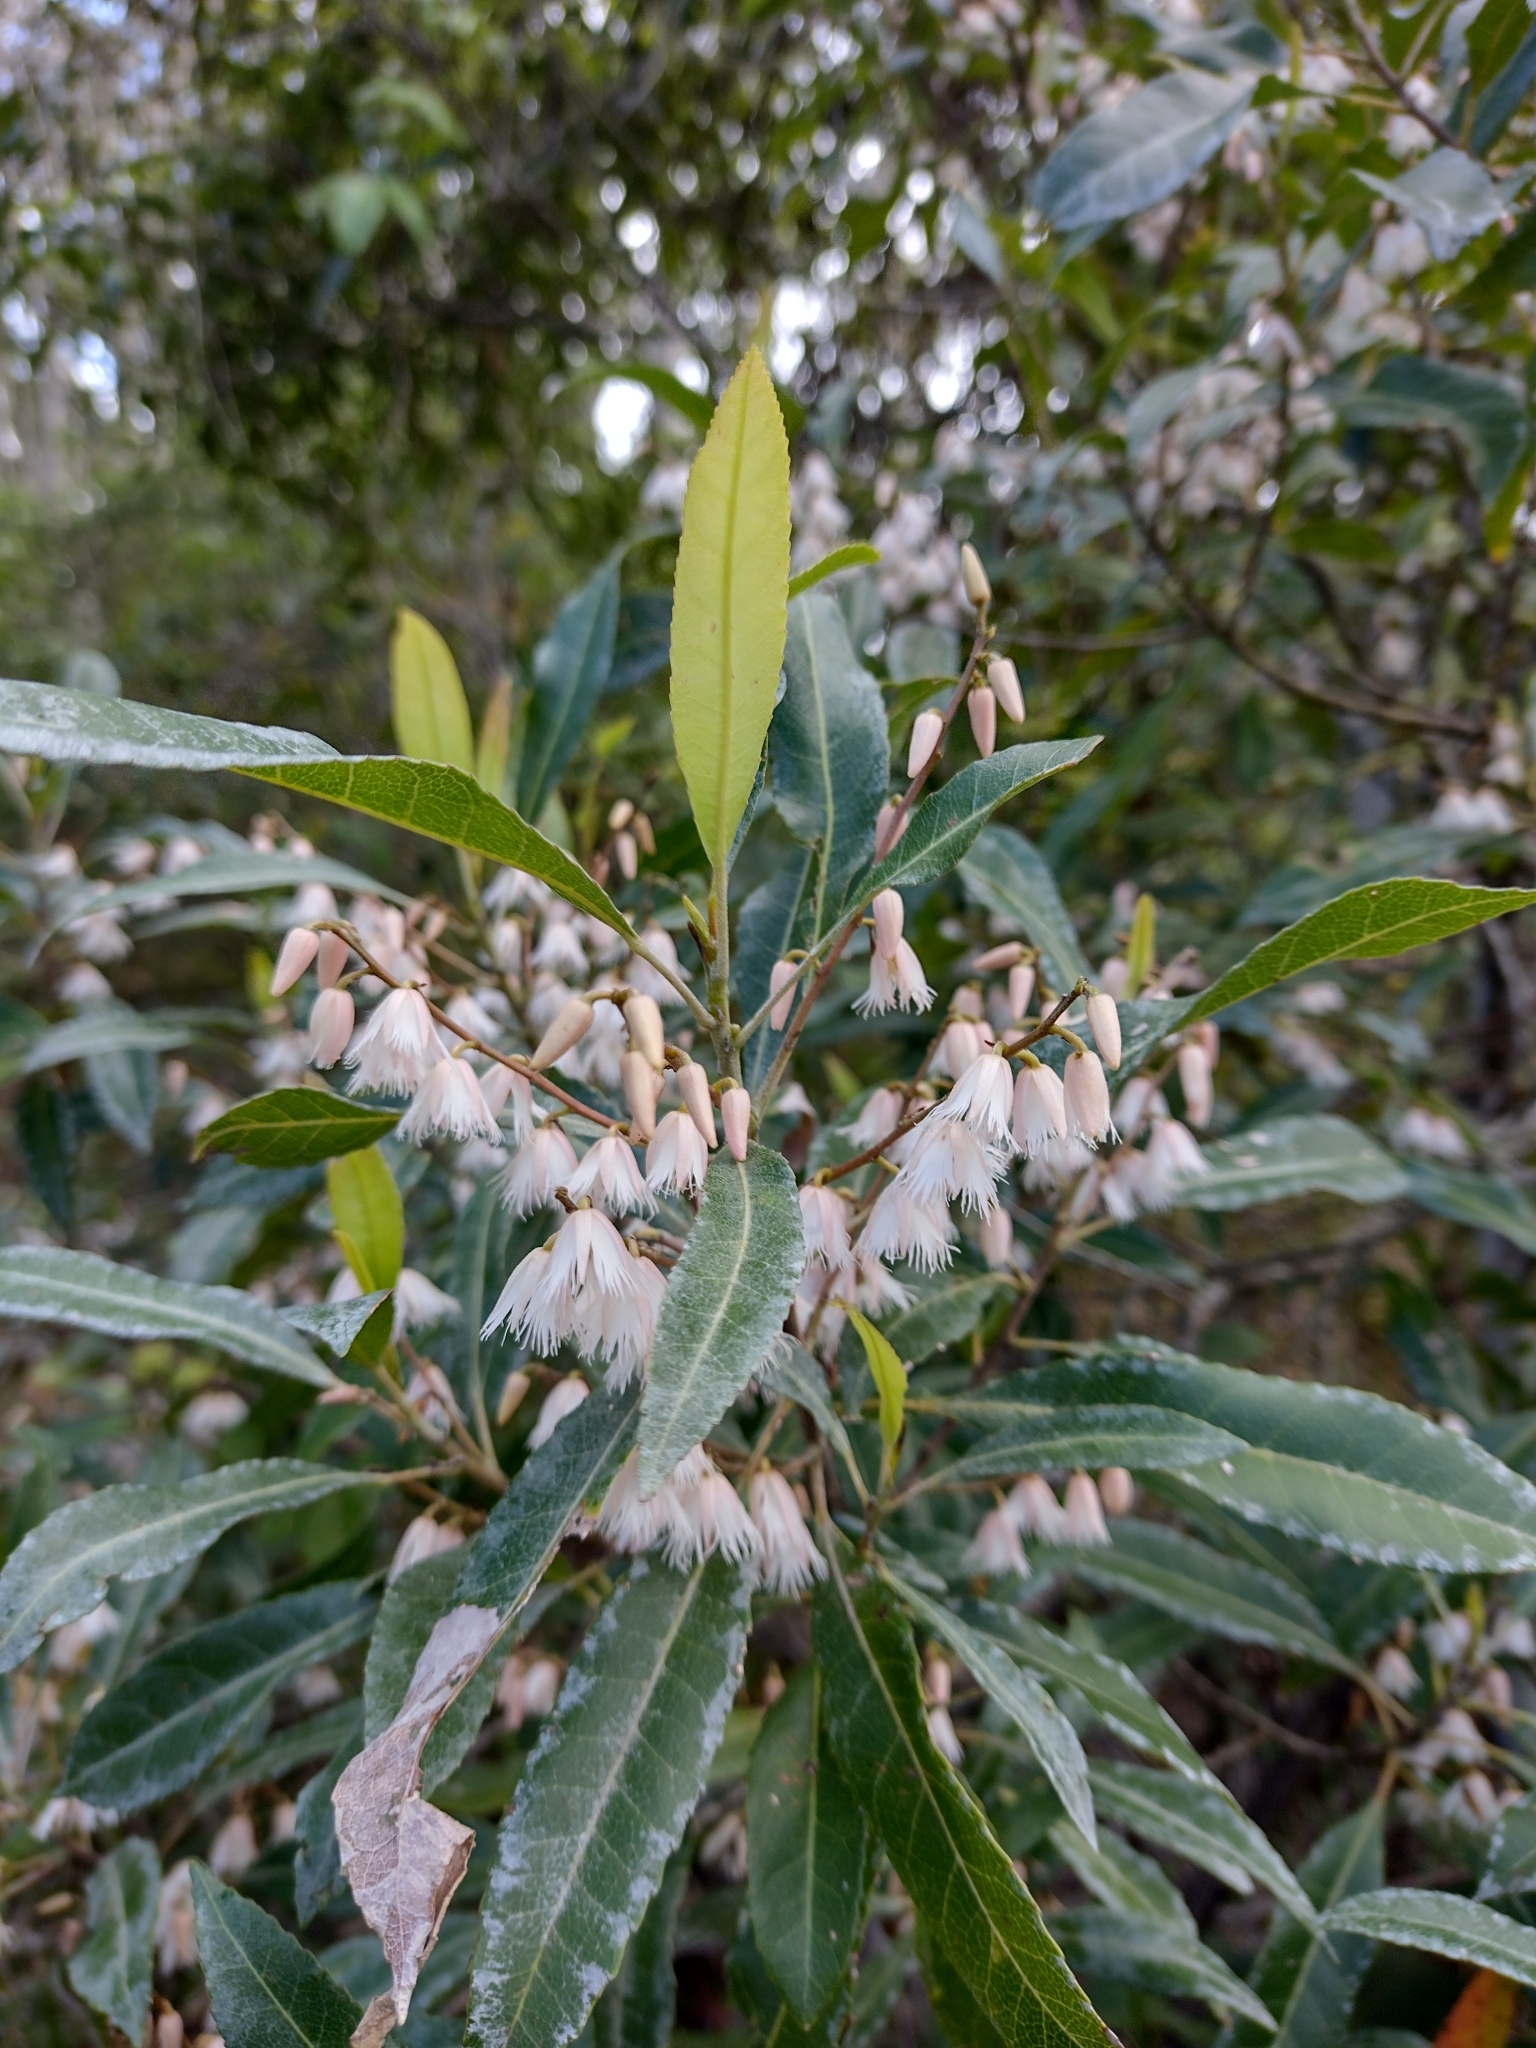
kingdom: Plantae
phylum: Tracheophyta
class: Magnoliopsida
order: Oxalidales
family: Elaeocarpaceae
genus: Elaeocarpus
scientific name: Elaeocarpus reticulatus
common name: Ash quandong
